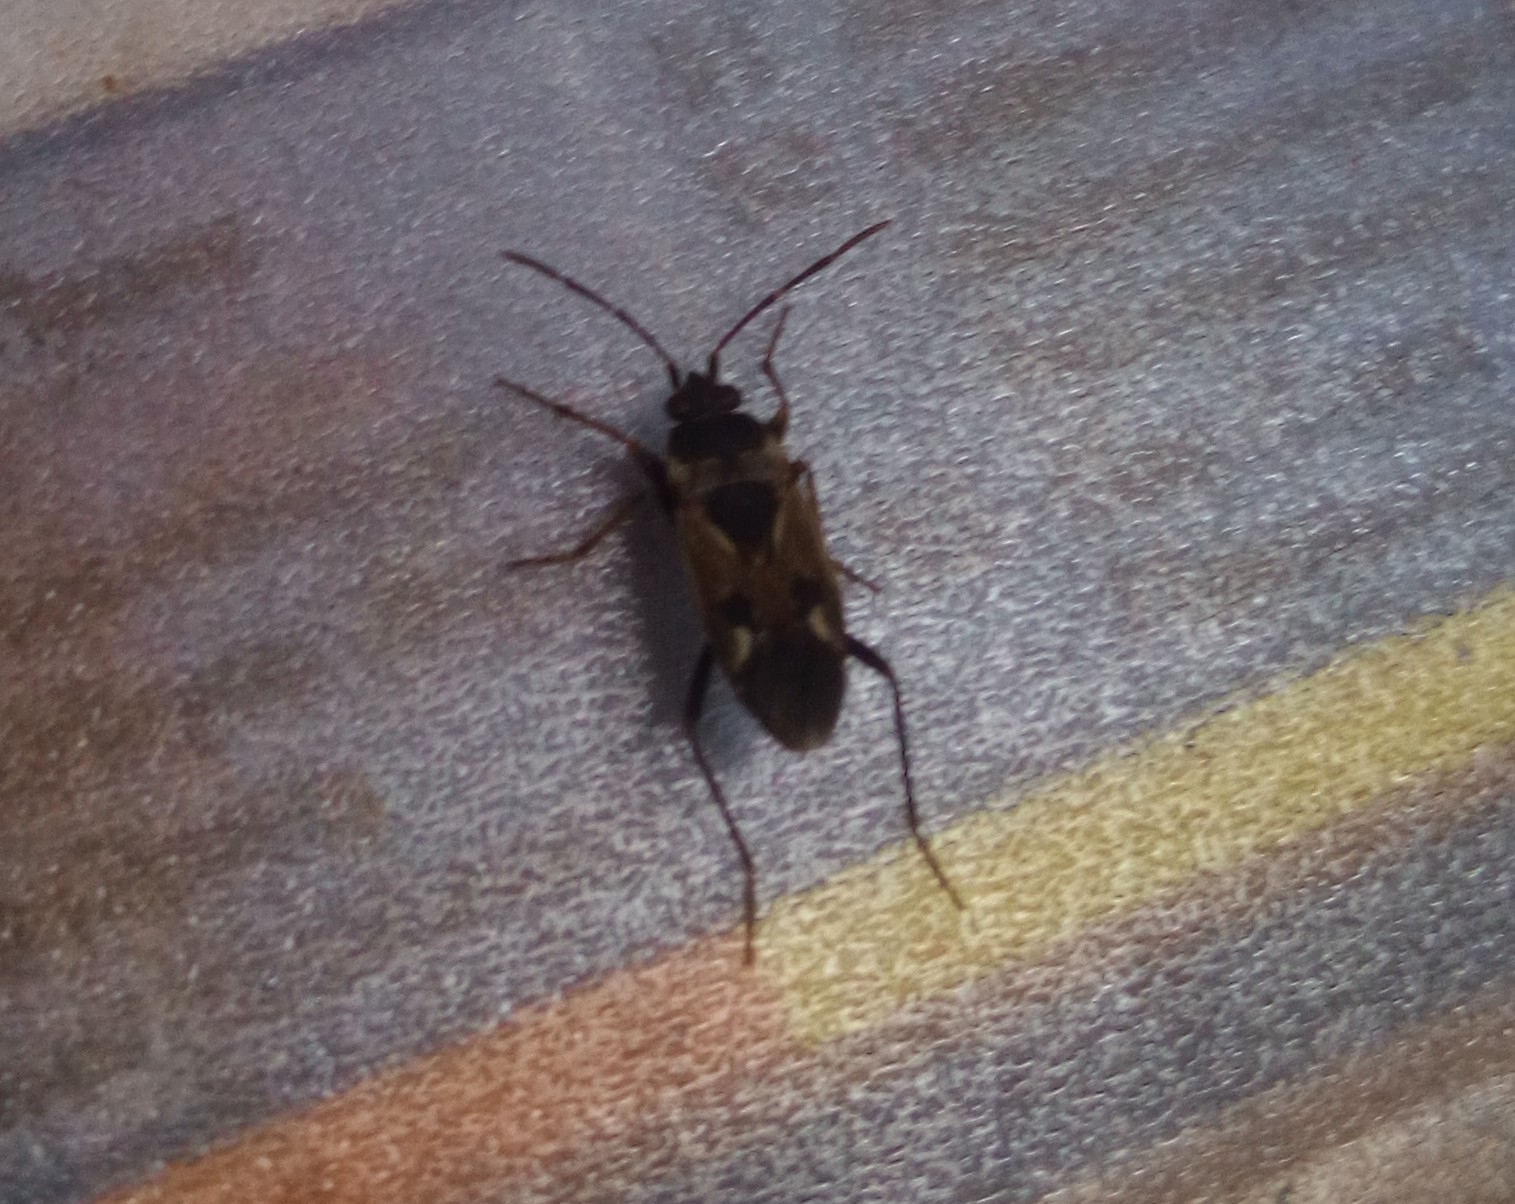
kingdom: Animalia
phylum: Arthropoda
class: Insecta
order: Hemiptera
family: Rhyparochromidae
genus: Rhyparochromus
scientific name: Rhyparochromus vulgaris
